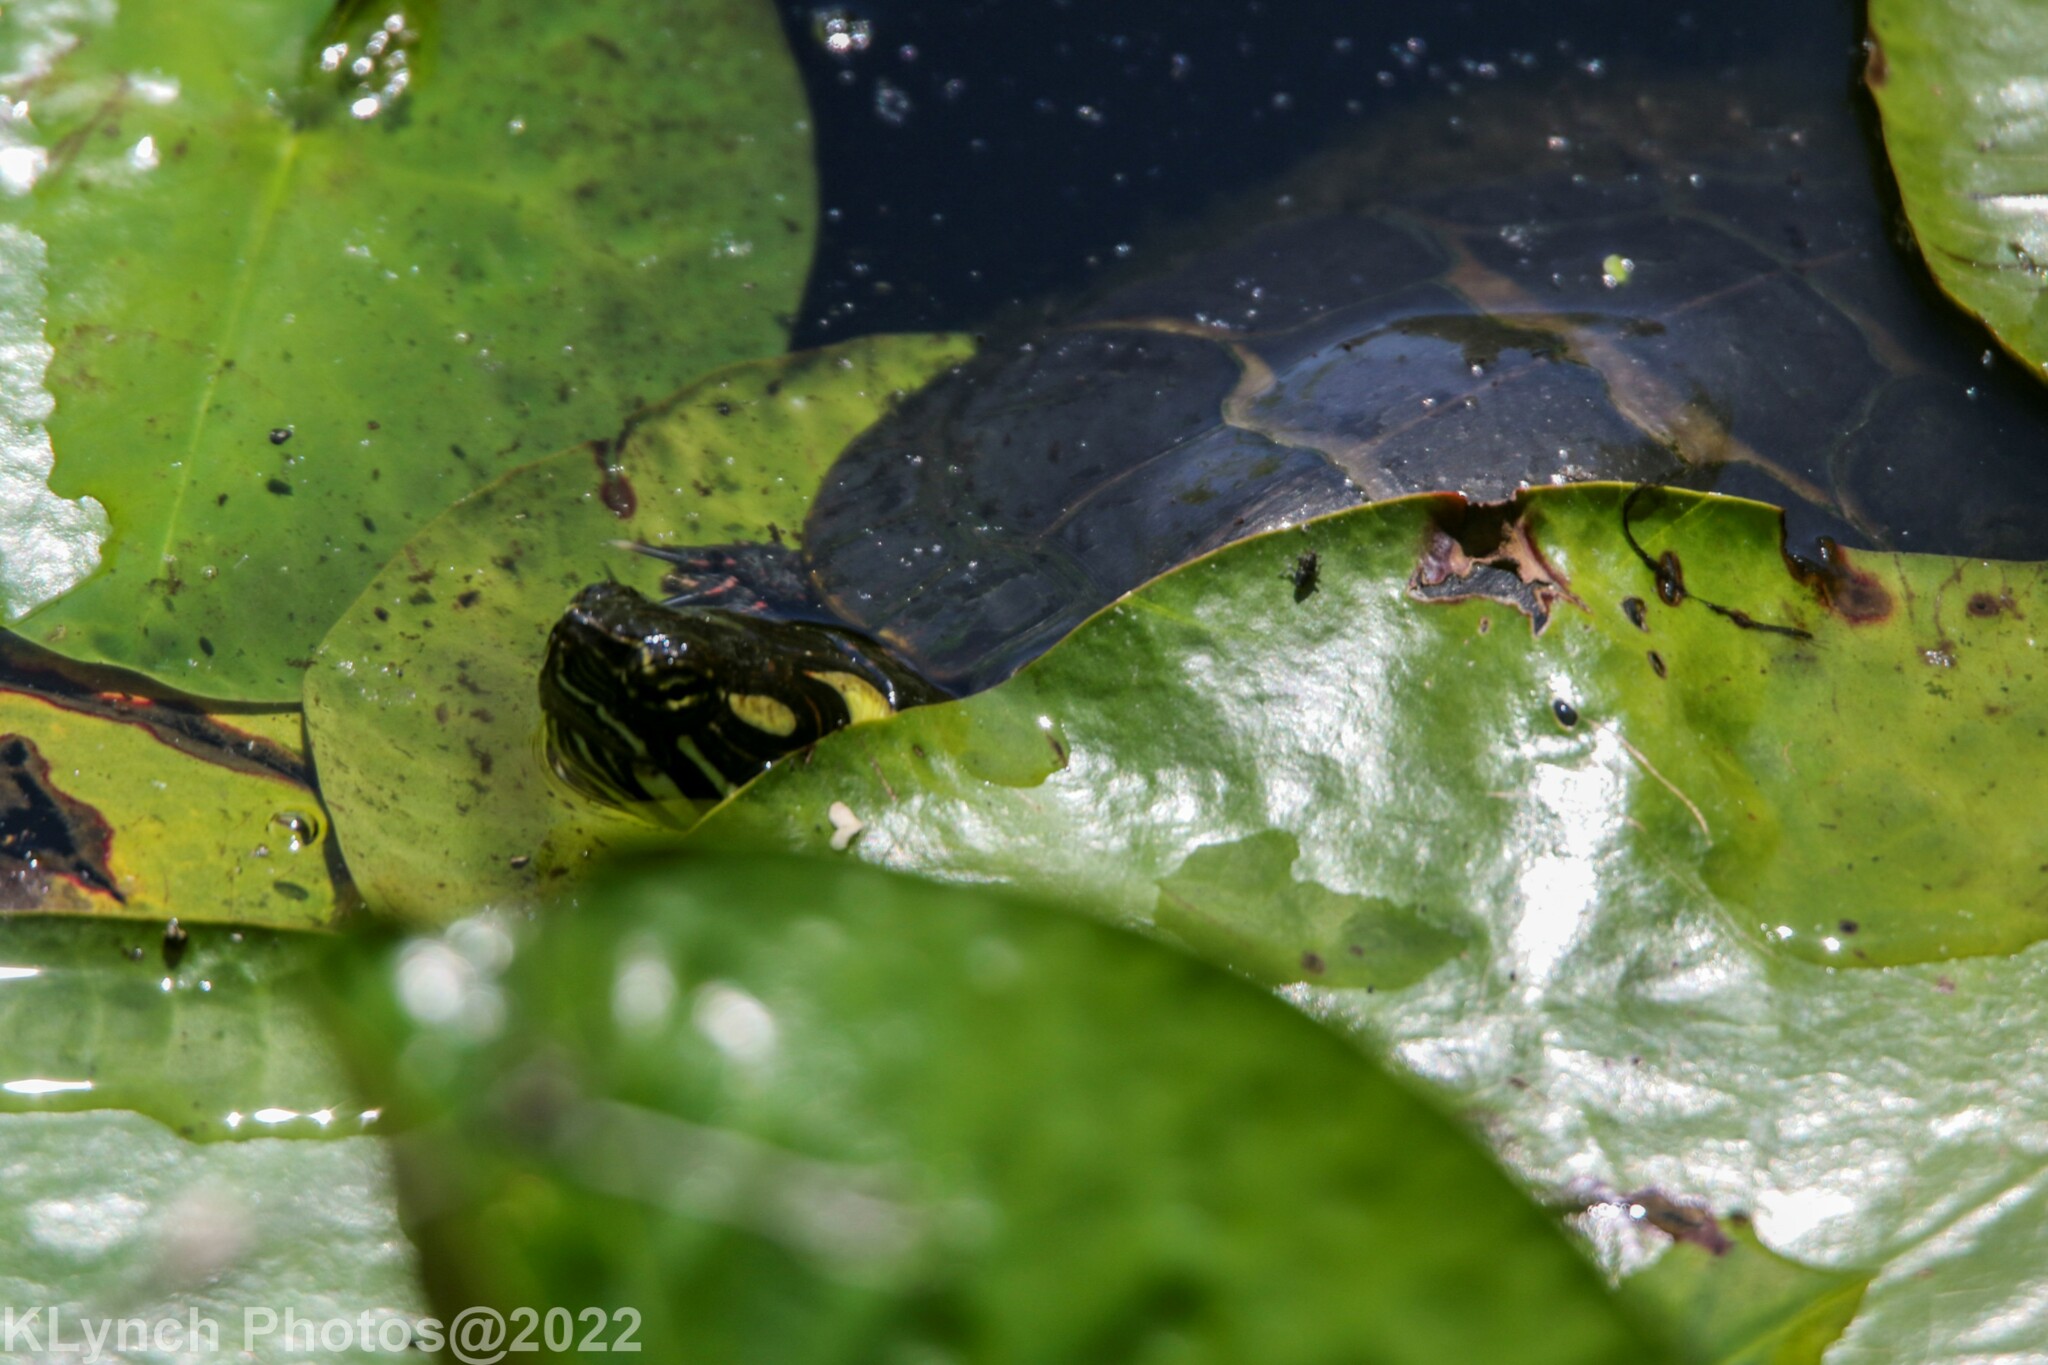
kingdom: Animalia
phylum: Chordata
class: Testudines
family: Emydidae
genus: Chrysemys
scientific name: Chrysemys picta
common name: Painted turtle
